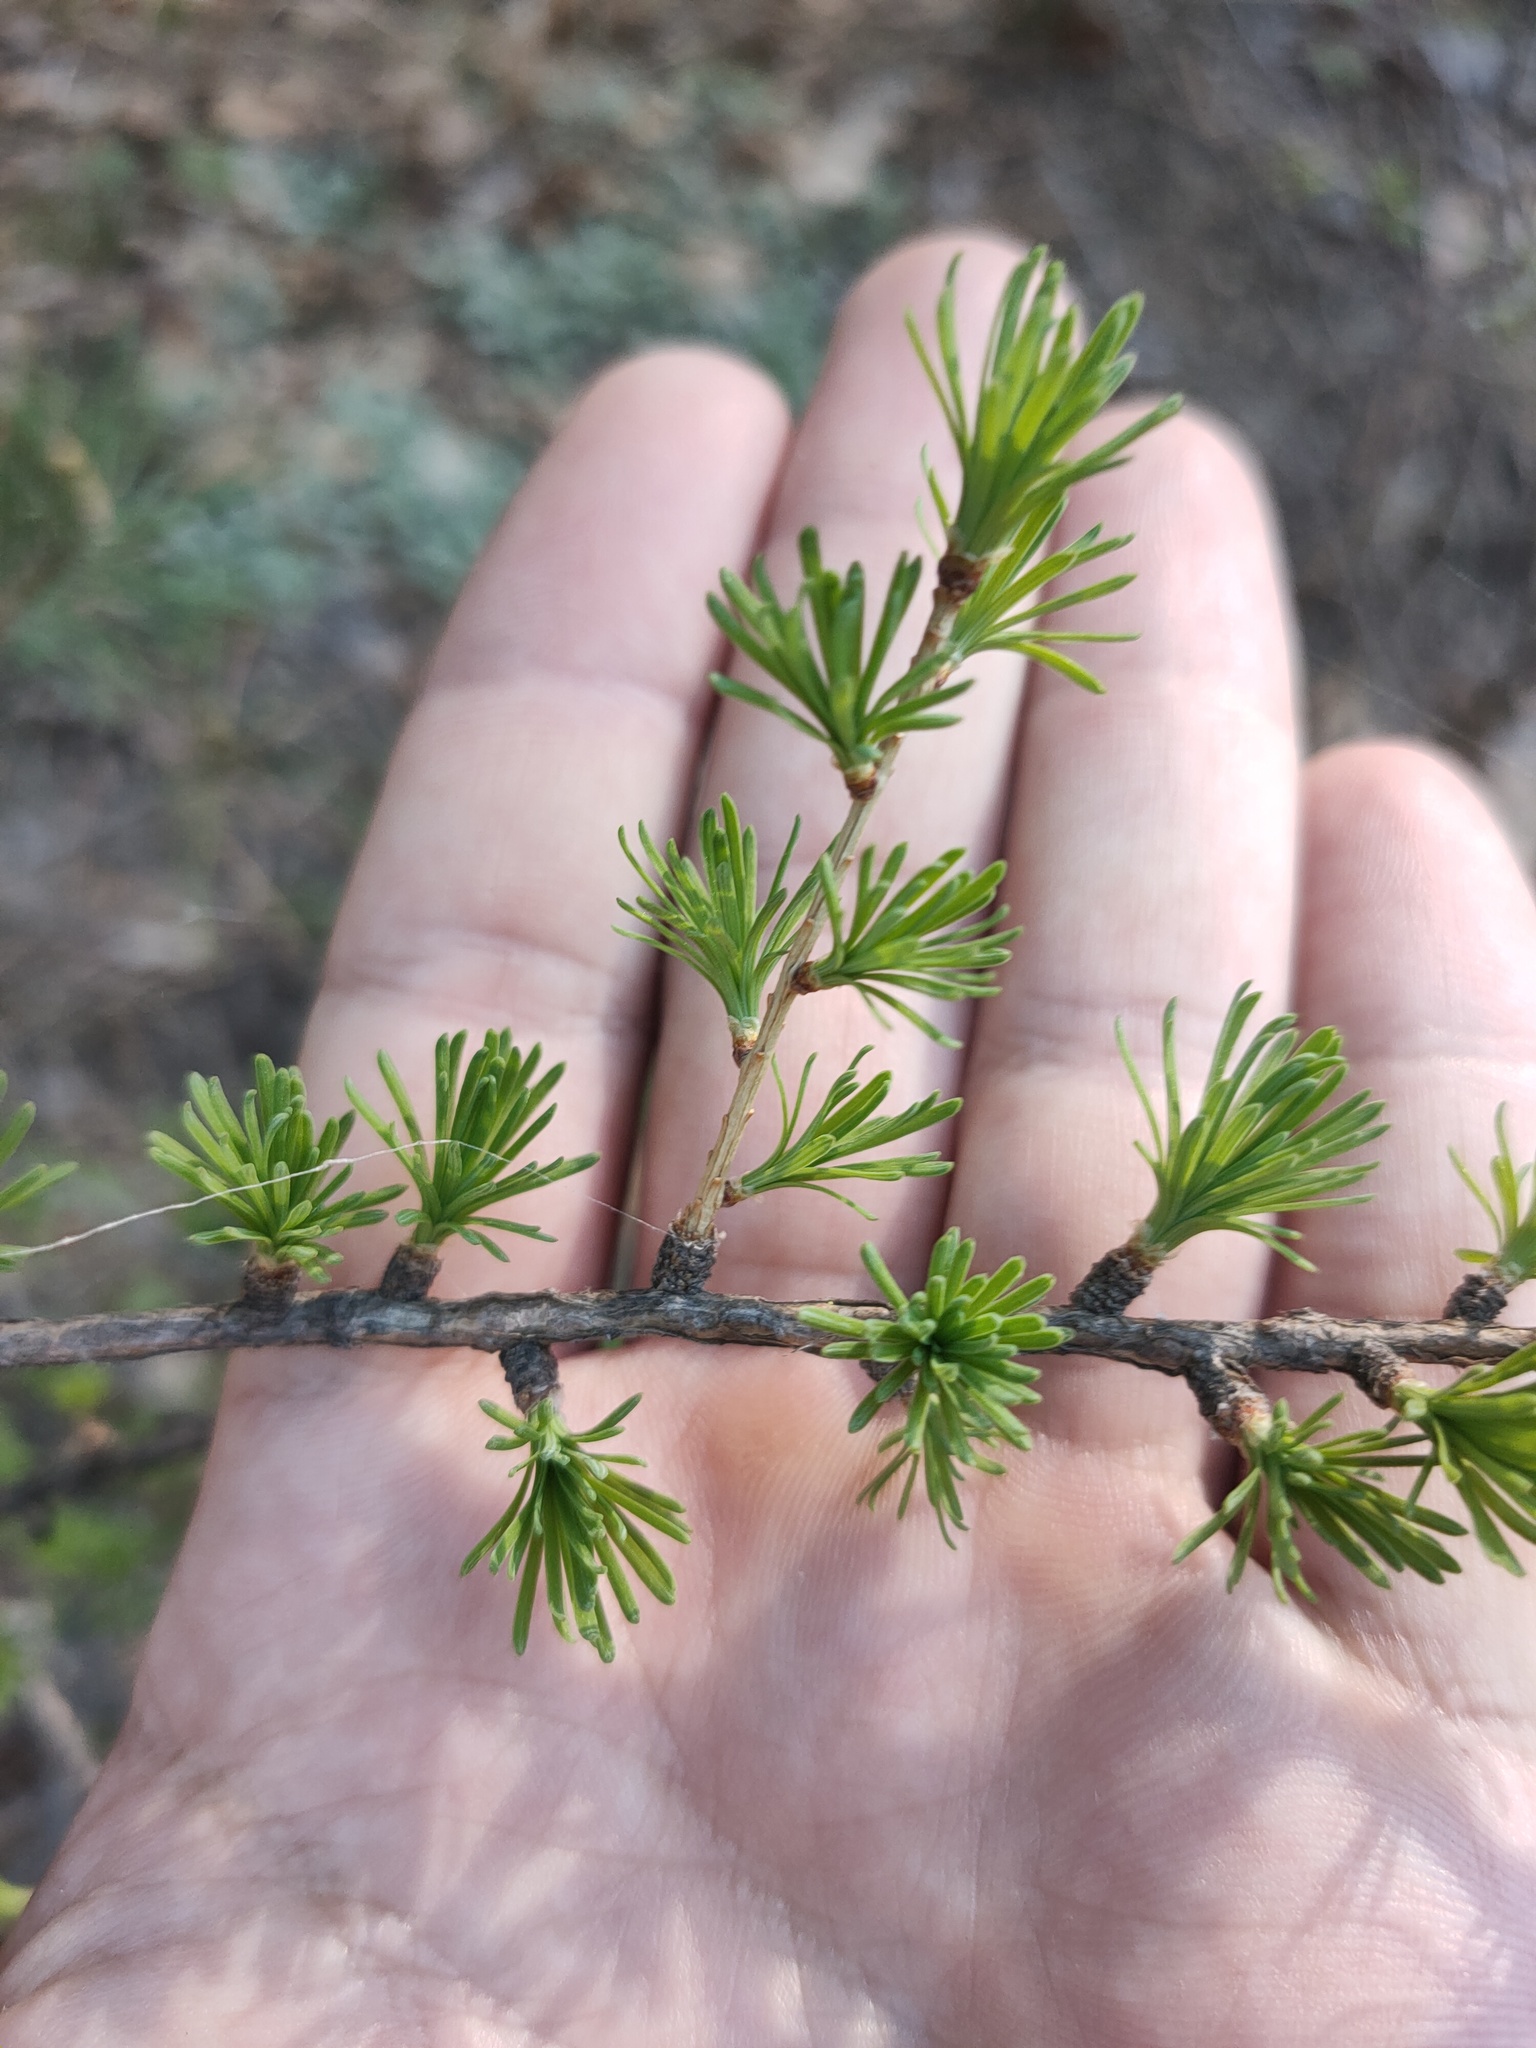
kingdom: Plantae
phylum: Tracheophyta
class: Pinopsida
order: Pinales
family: Pinaceae
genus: Larix
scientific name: Larix sibirica
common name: Siberian larch
